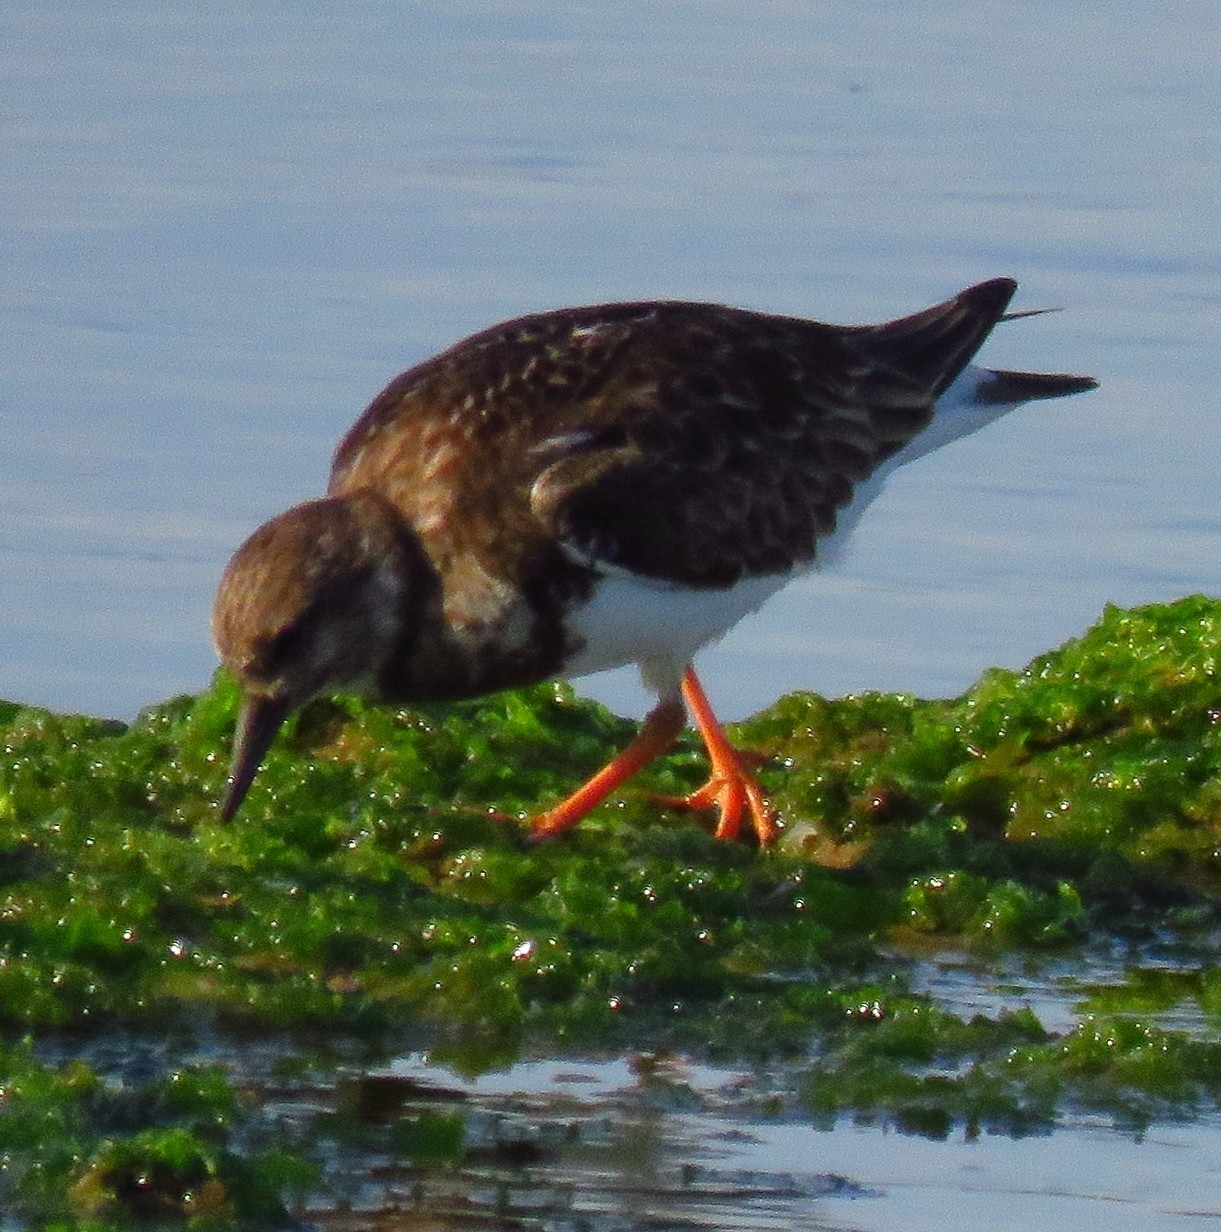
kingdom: Animalia
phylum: Chordata
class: Aves
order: Charadriiformes
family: Scolopacidae
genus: Arenaria
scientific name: Arenaria interpres
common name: Ruddy turnstone
